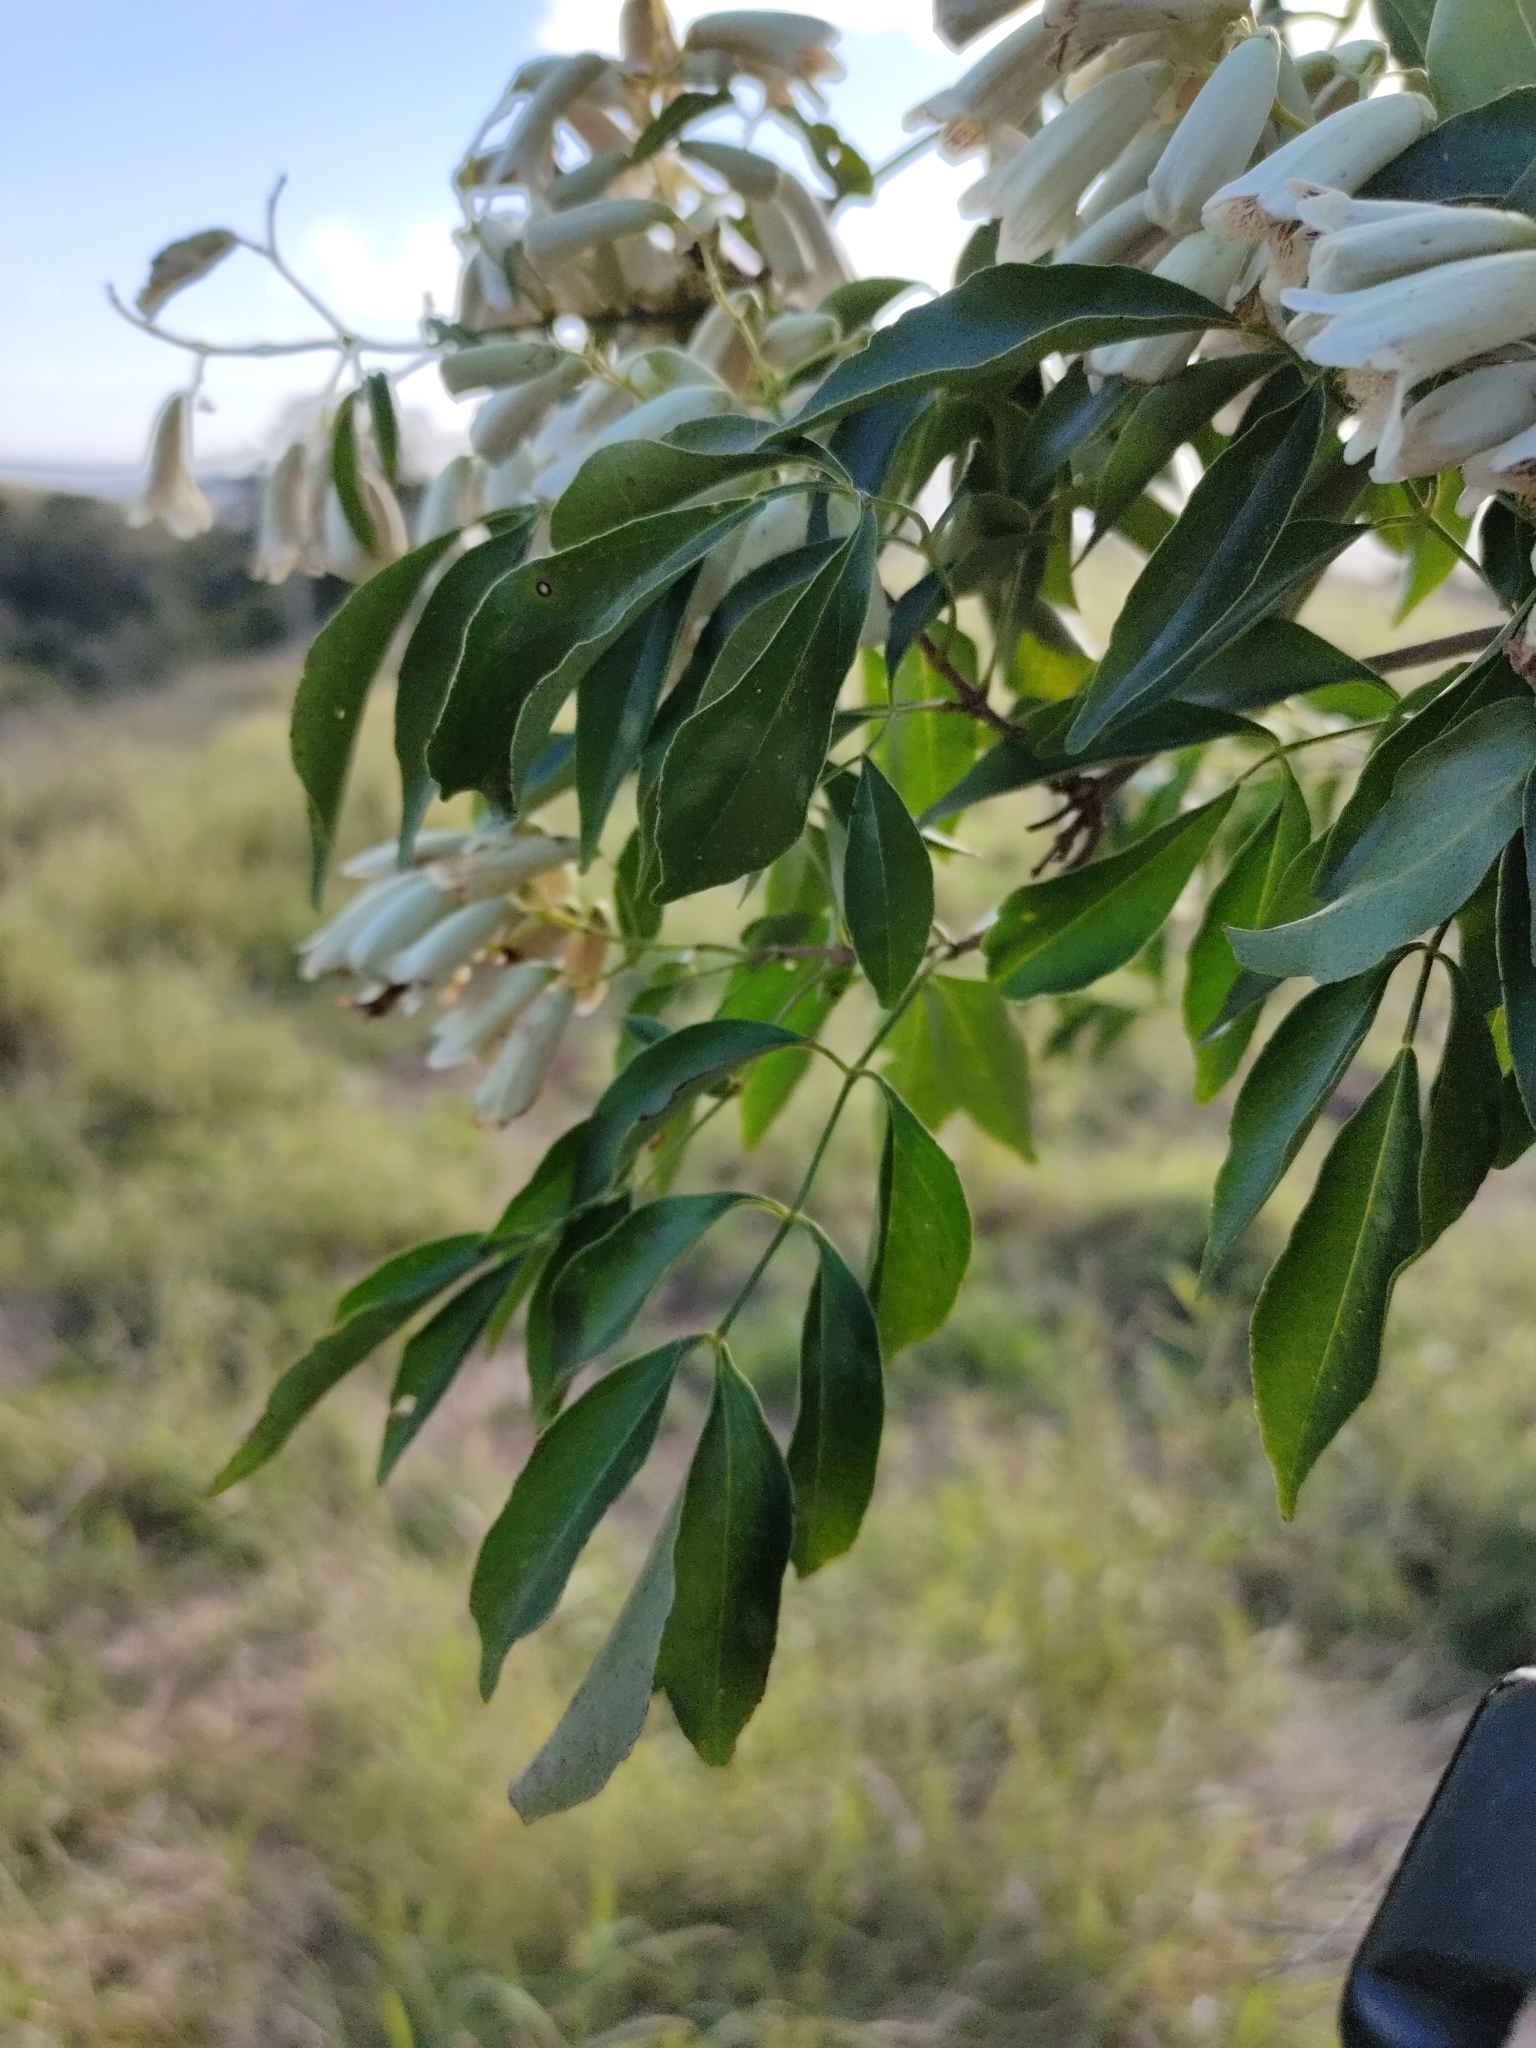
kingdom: Plantae
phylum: Tracheophyta
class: Magnoliopsida
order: Lamiales
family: Bignoniaceae
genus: Pandorea
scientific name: Pandorea pandorana
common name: Wonga-wonga-vine
